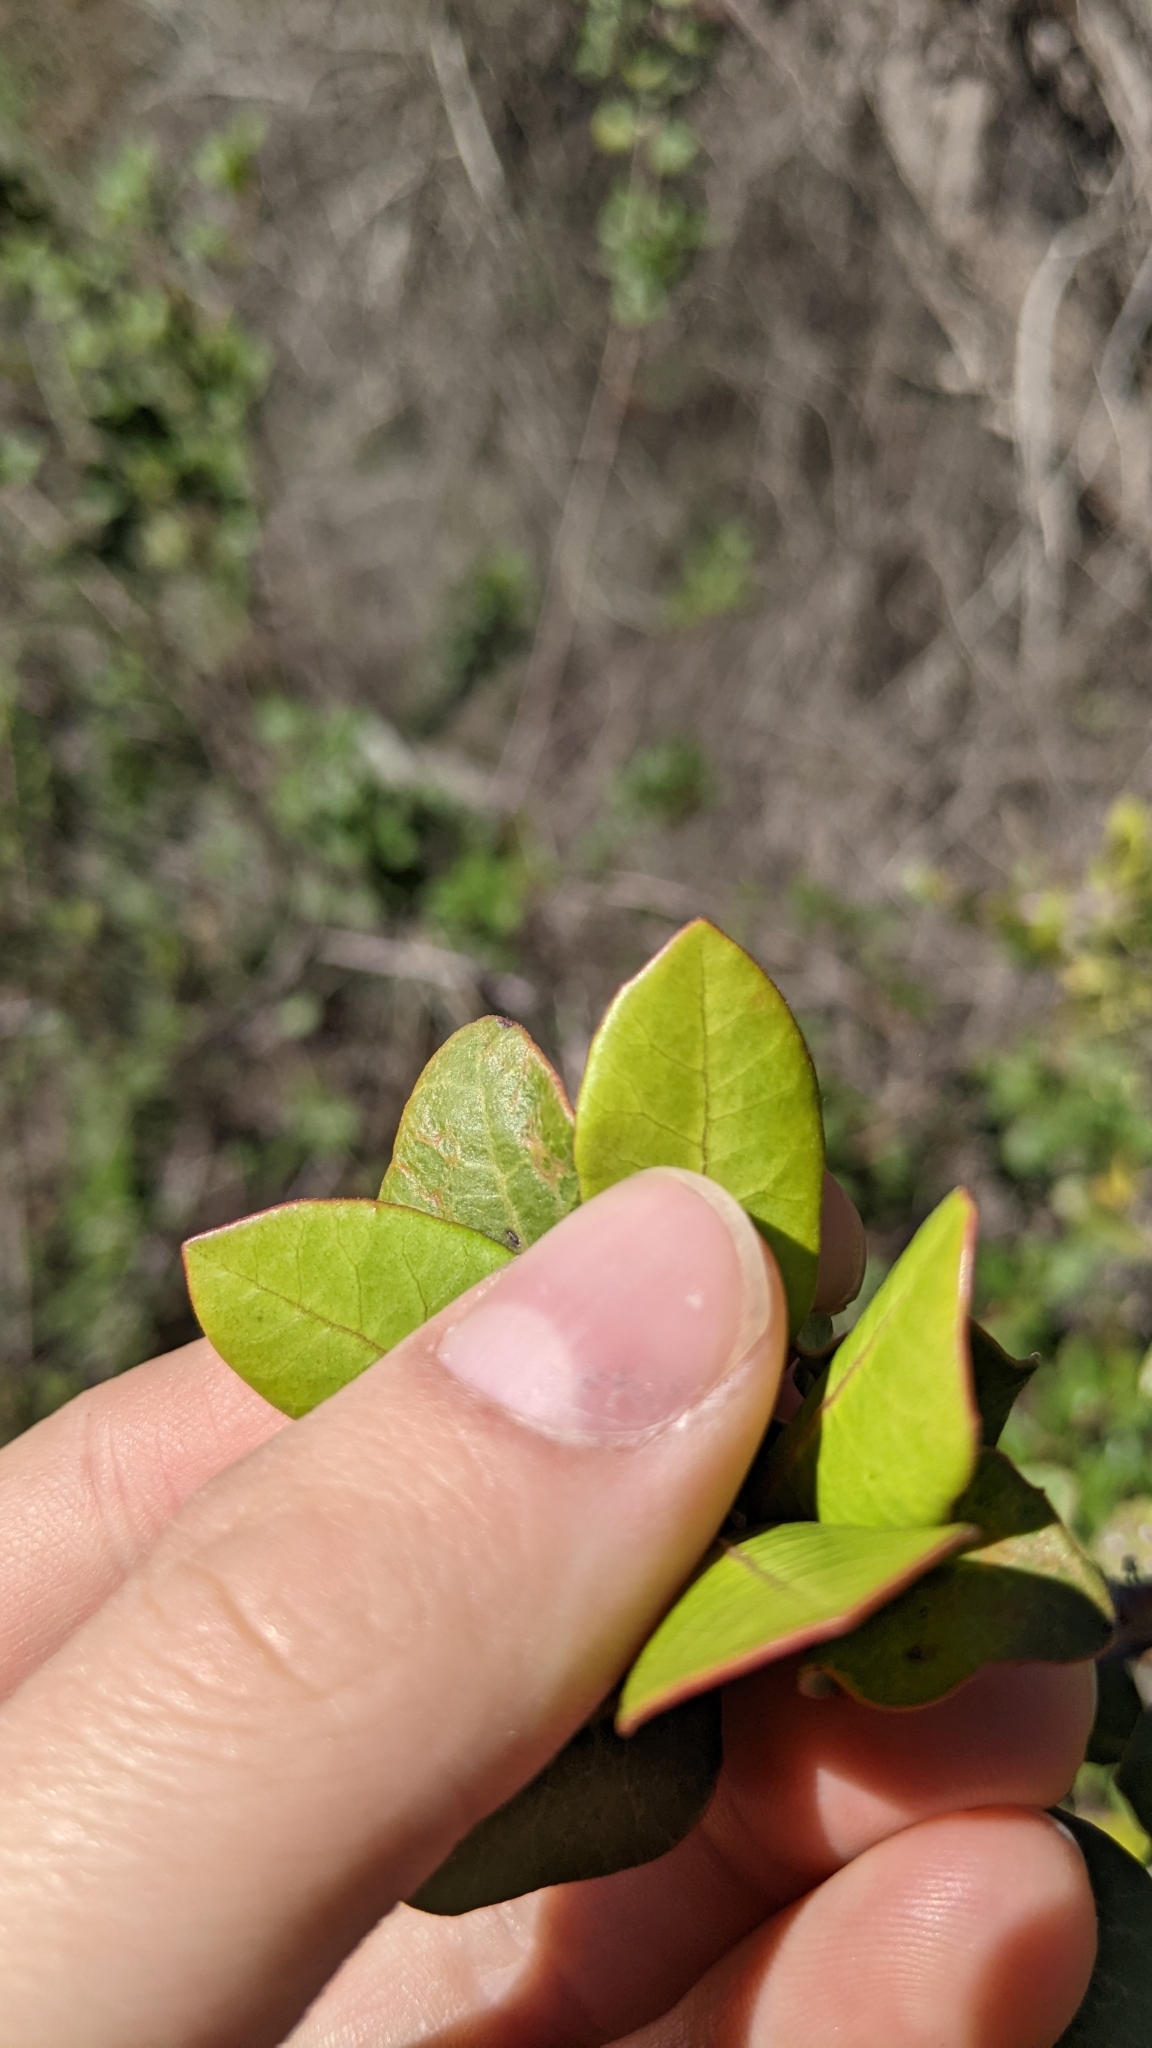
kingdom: Plantae
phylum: Tracheophyta
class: Magnoliopsida
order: Sapindales
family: Anacardiaceae
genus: Rhus
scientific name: Rhus integrifolia
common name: Lemonade sumac
